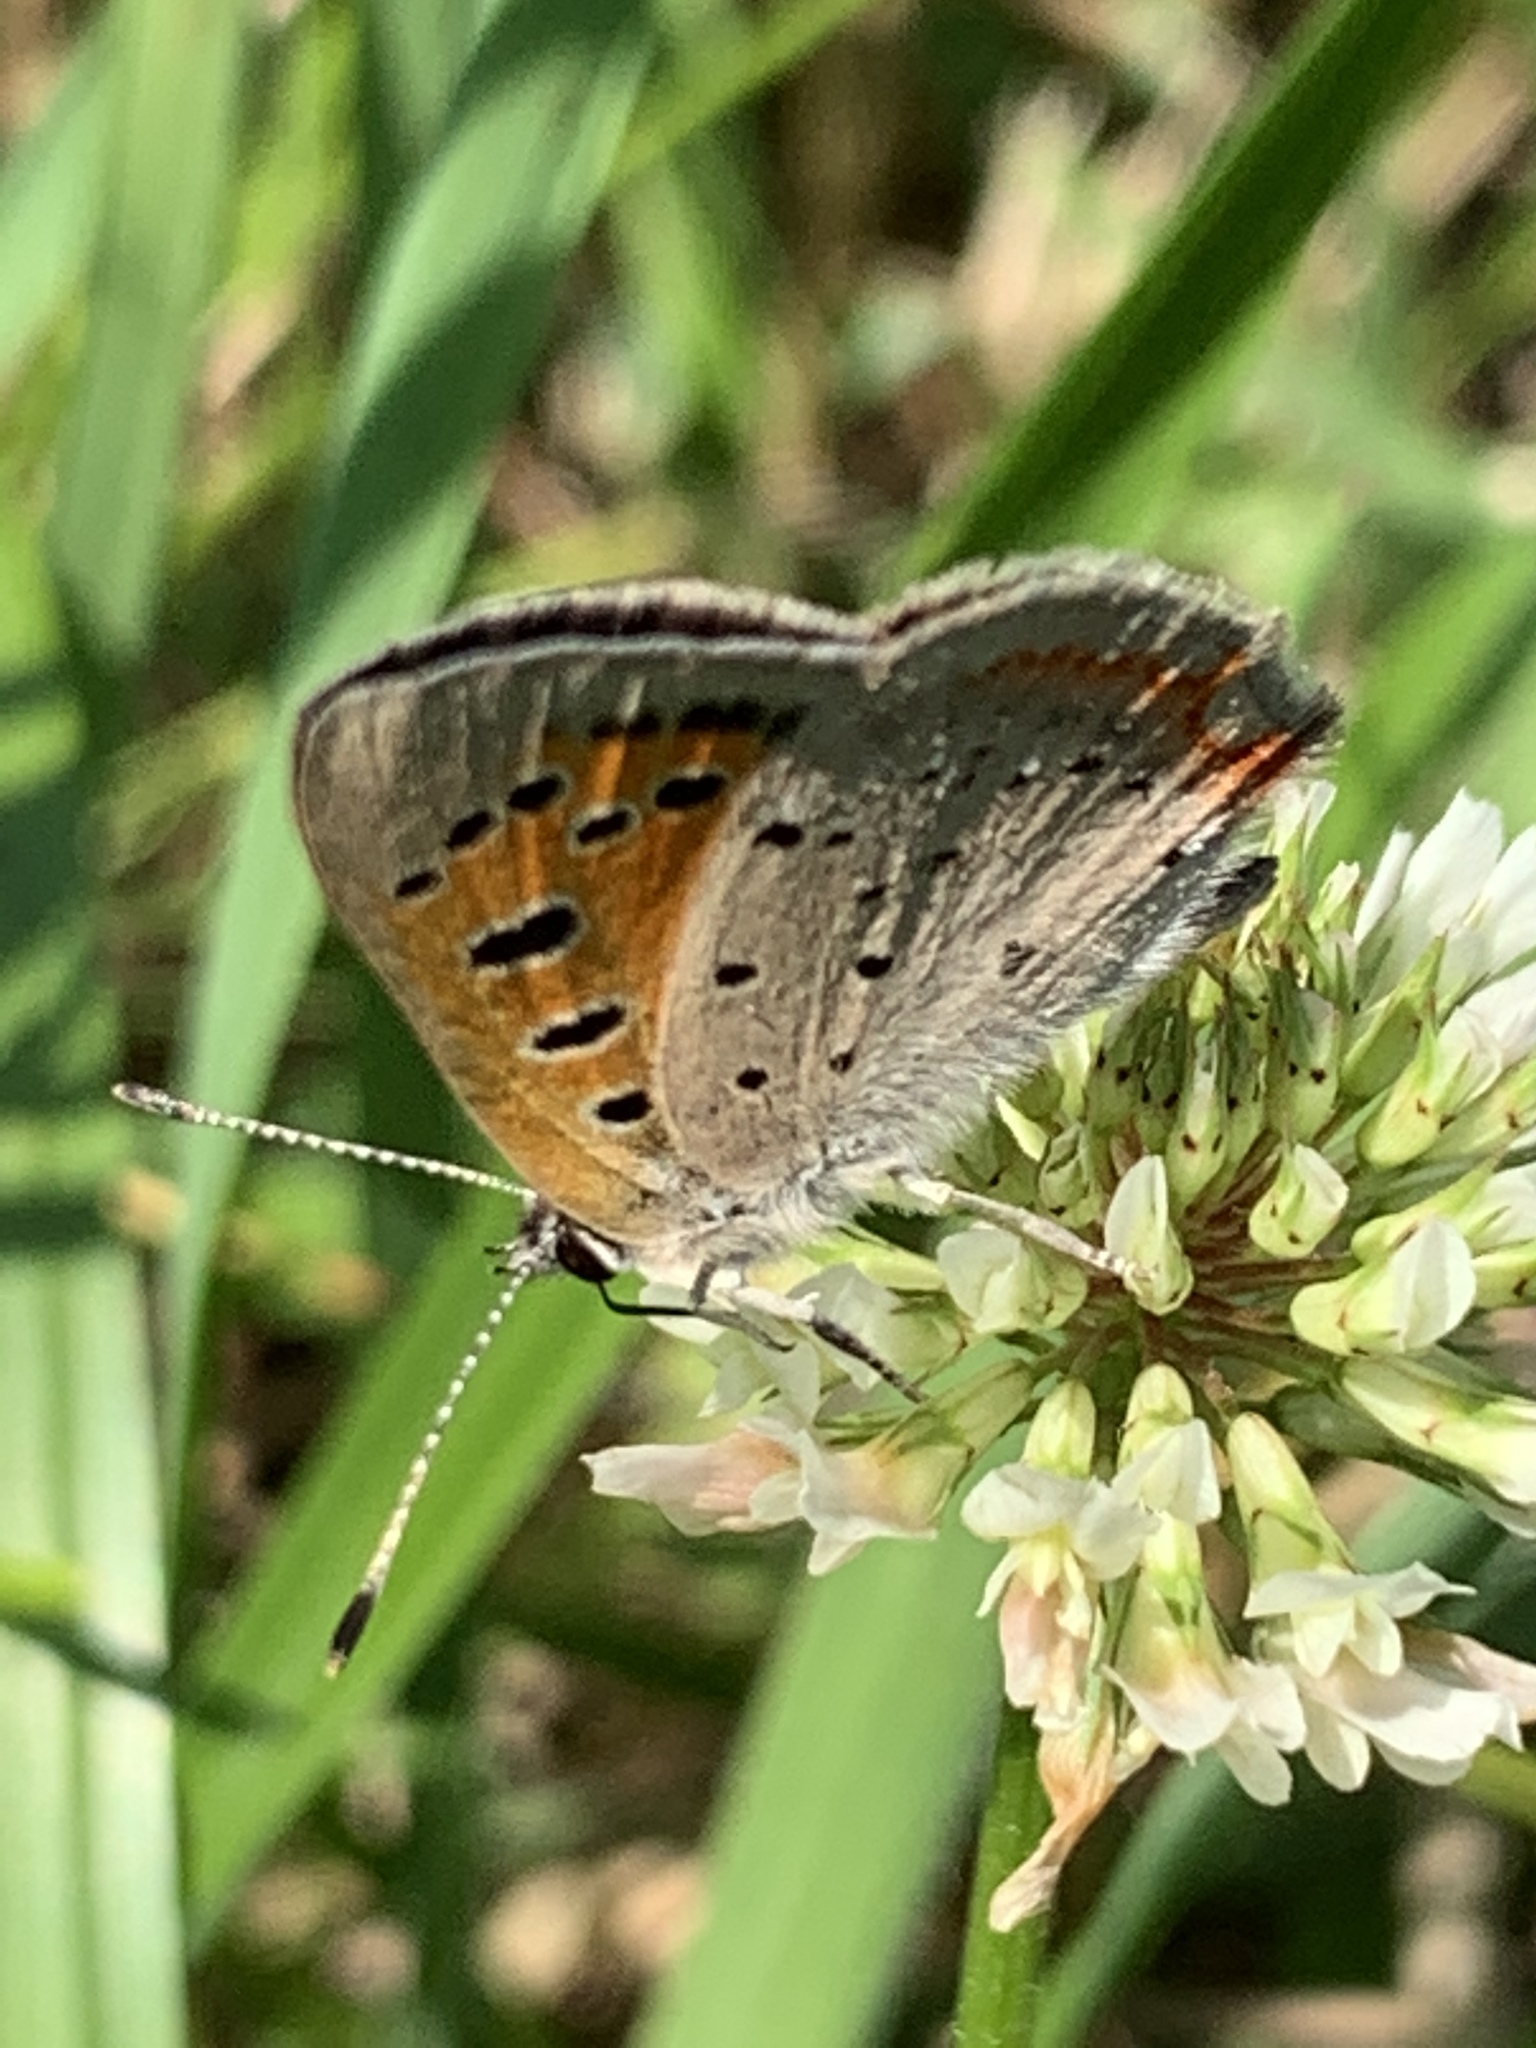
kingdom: Animalia
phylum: Arthropoda
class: Insecta
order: Lepidoptera
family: Lycaenidae
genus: Lycaena
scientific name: Lycaena hypophlaeas
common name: American copper
